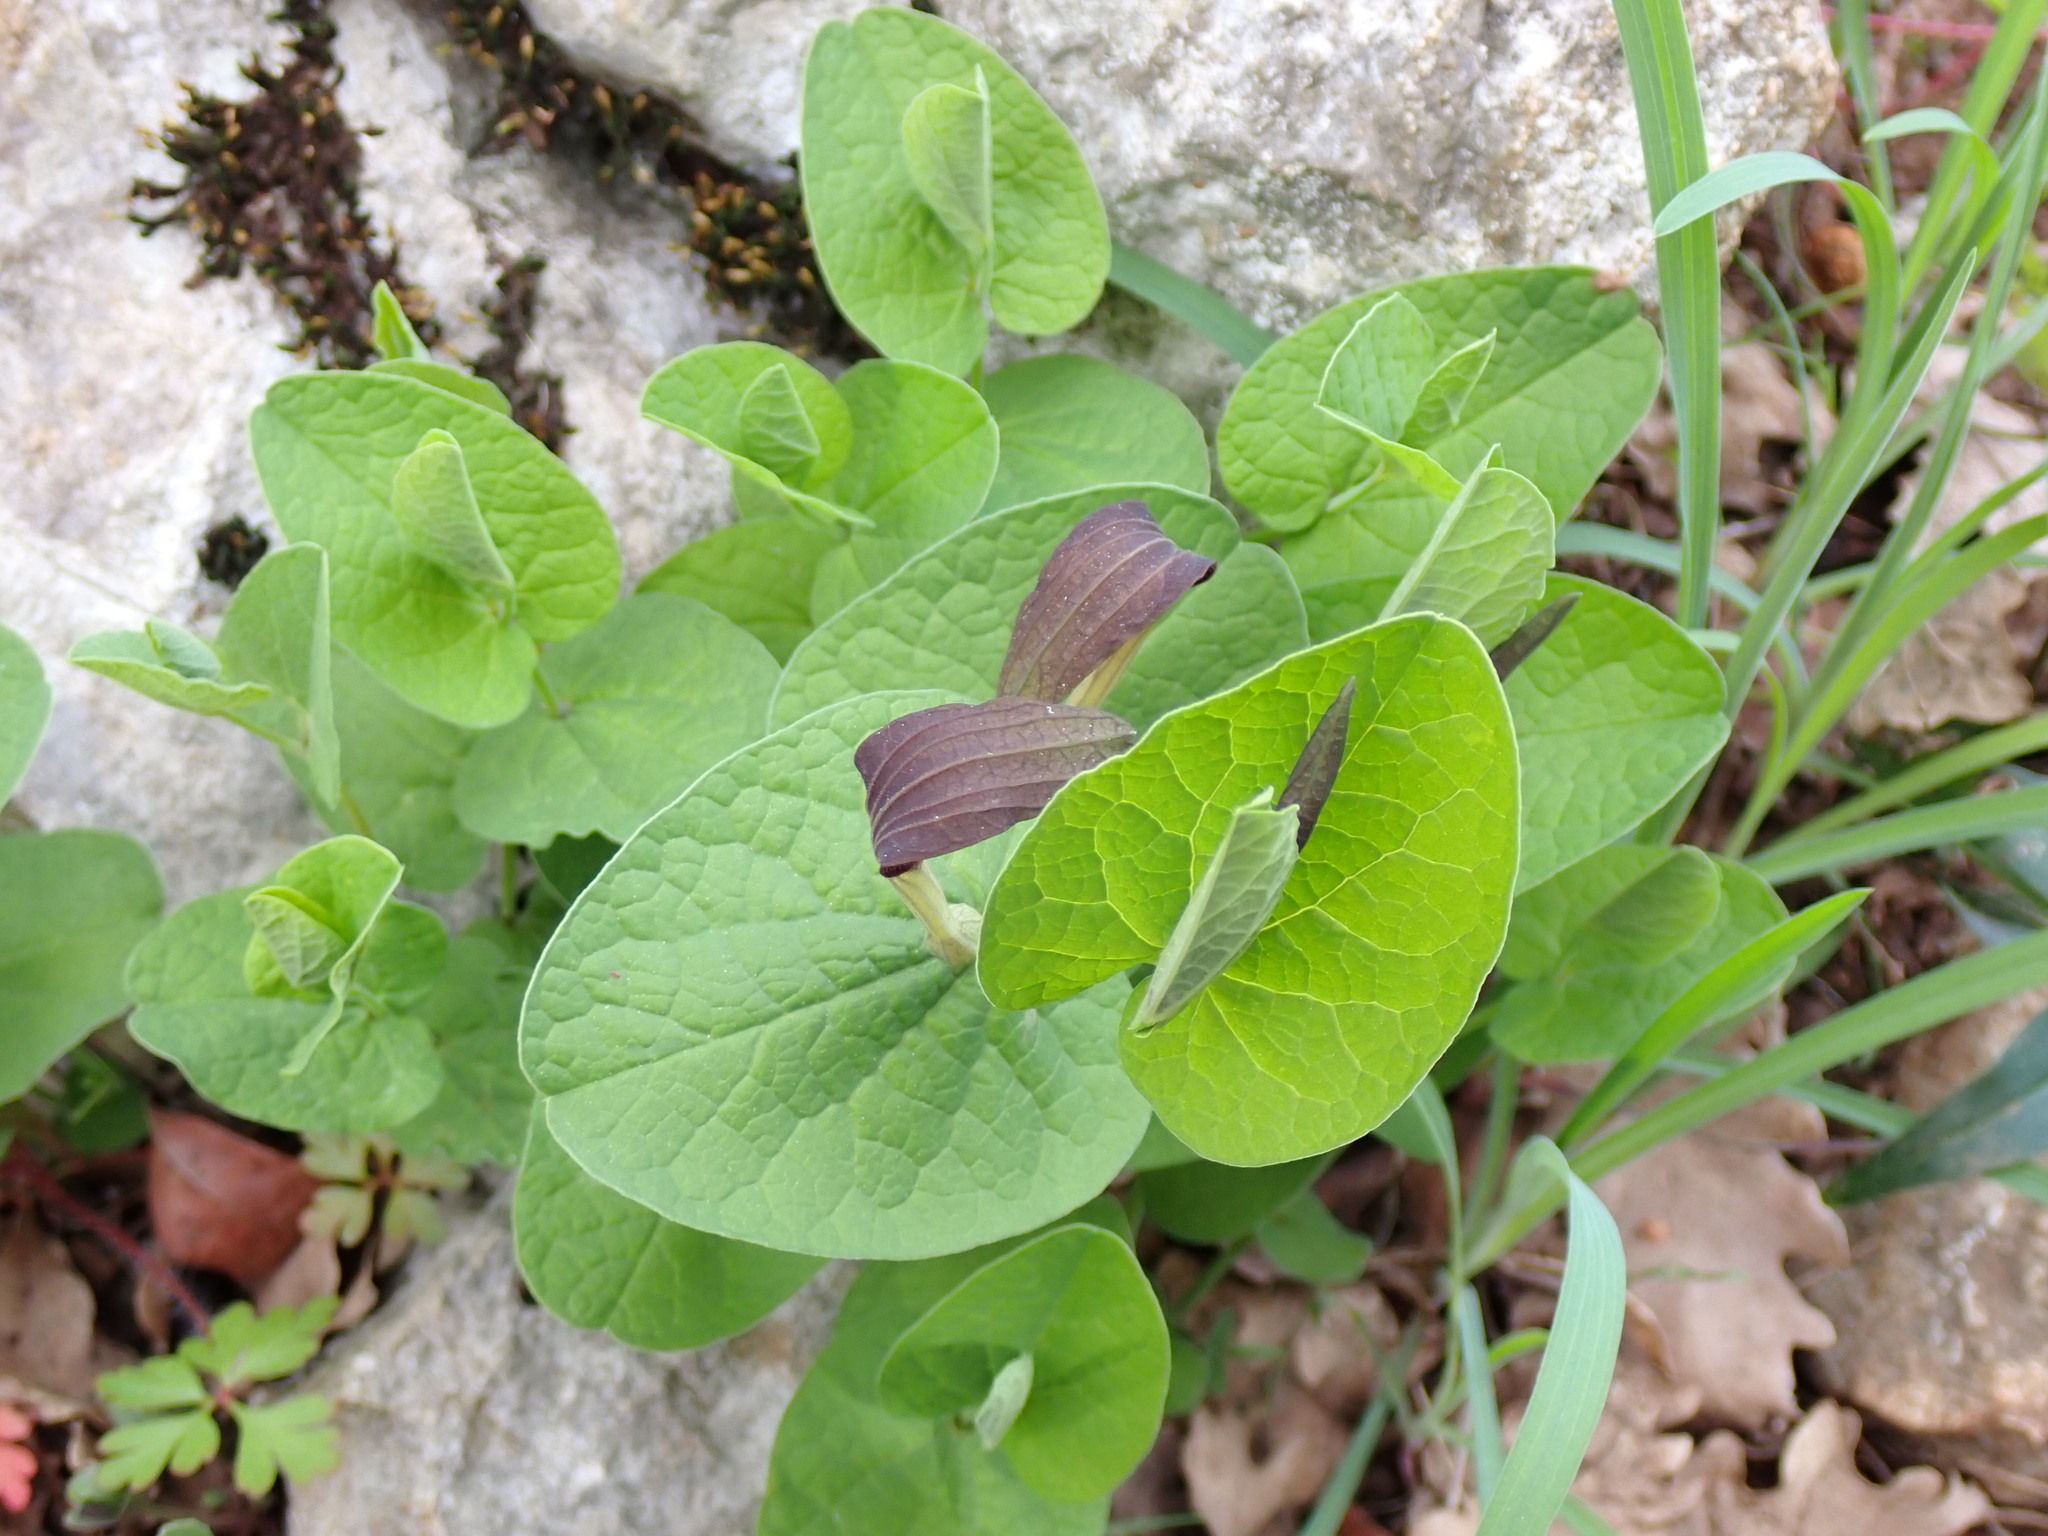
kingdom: Plantae
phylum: Tracheophyta
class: Magnoliopsida
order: Piperales
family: Aristolochiaceae
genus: Aristolochia
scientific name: Aristolochia rotunda
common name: Smearwort
